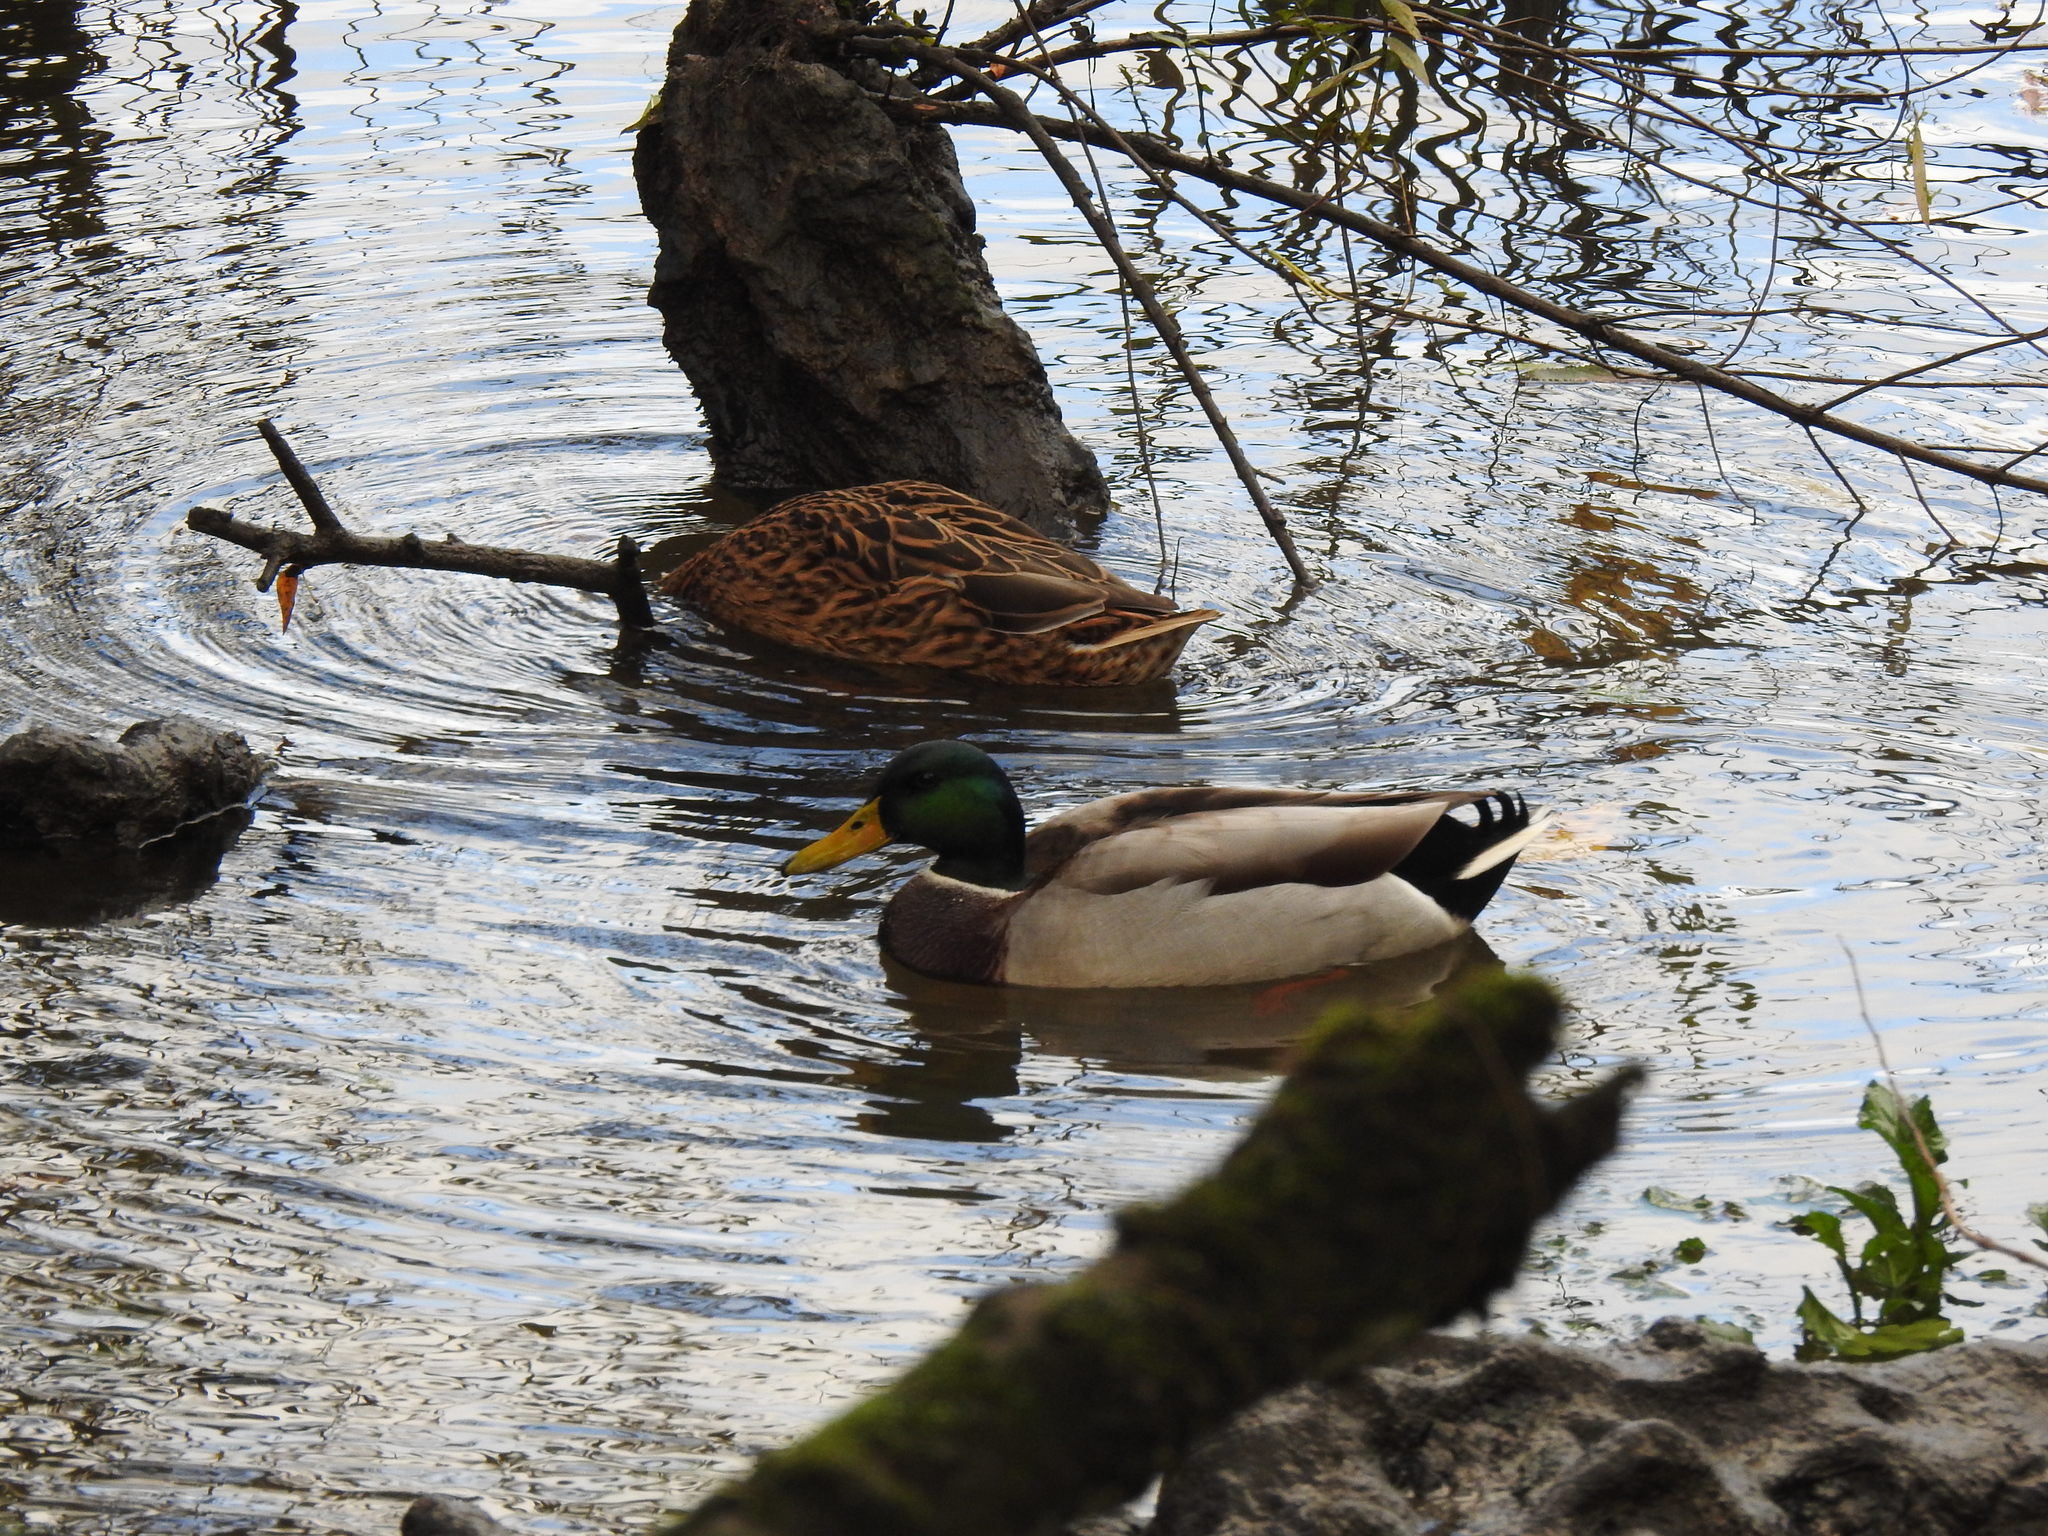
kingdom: Animalia
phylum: Chordata
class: Aves
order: Anseriformes
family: Anatidae
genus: Anas
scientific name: Anas platyrhynchos
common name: Mallard
